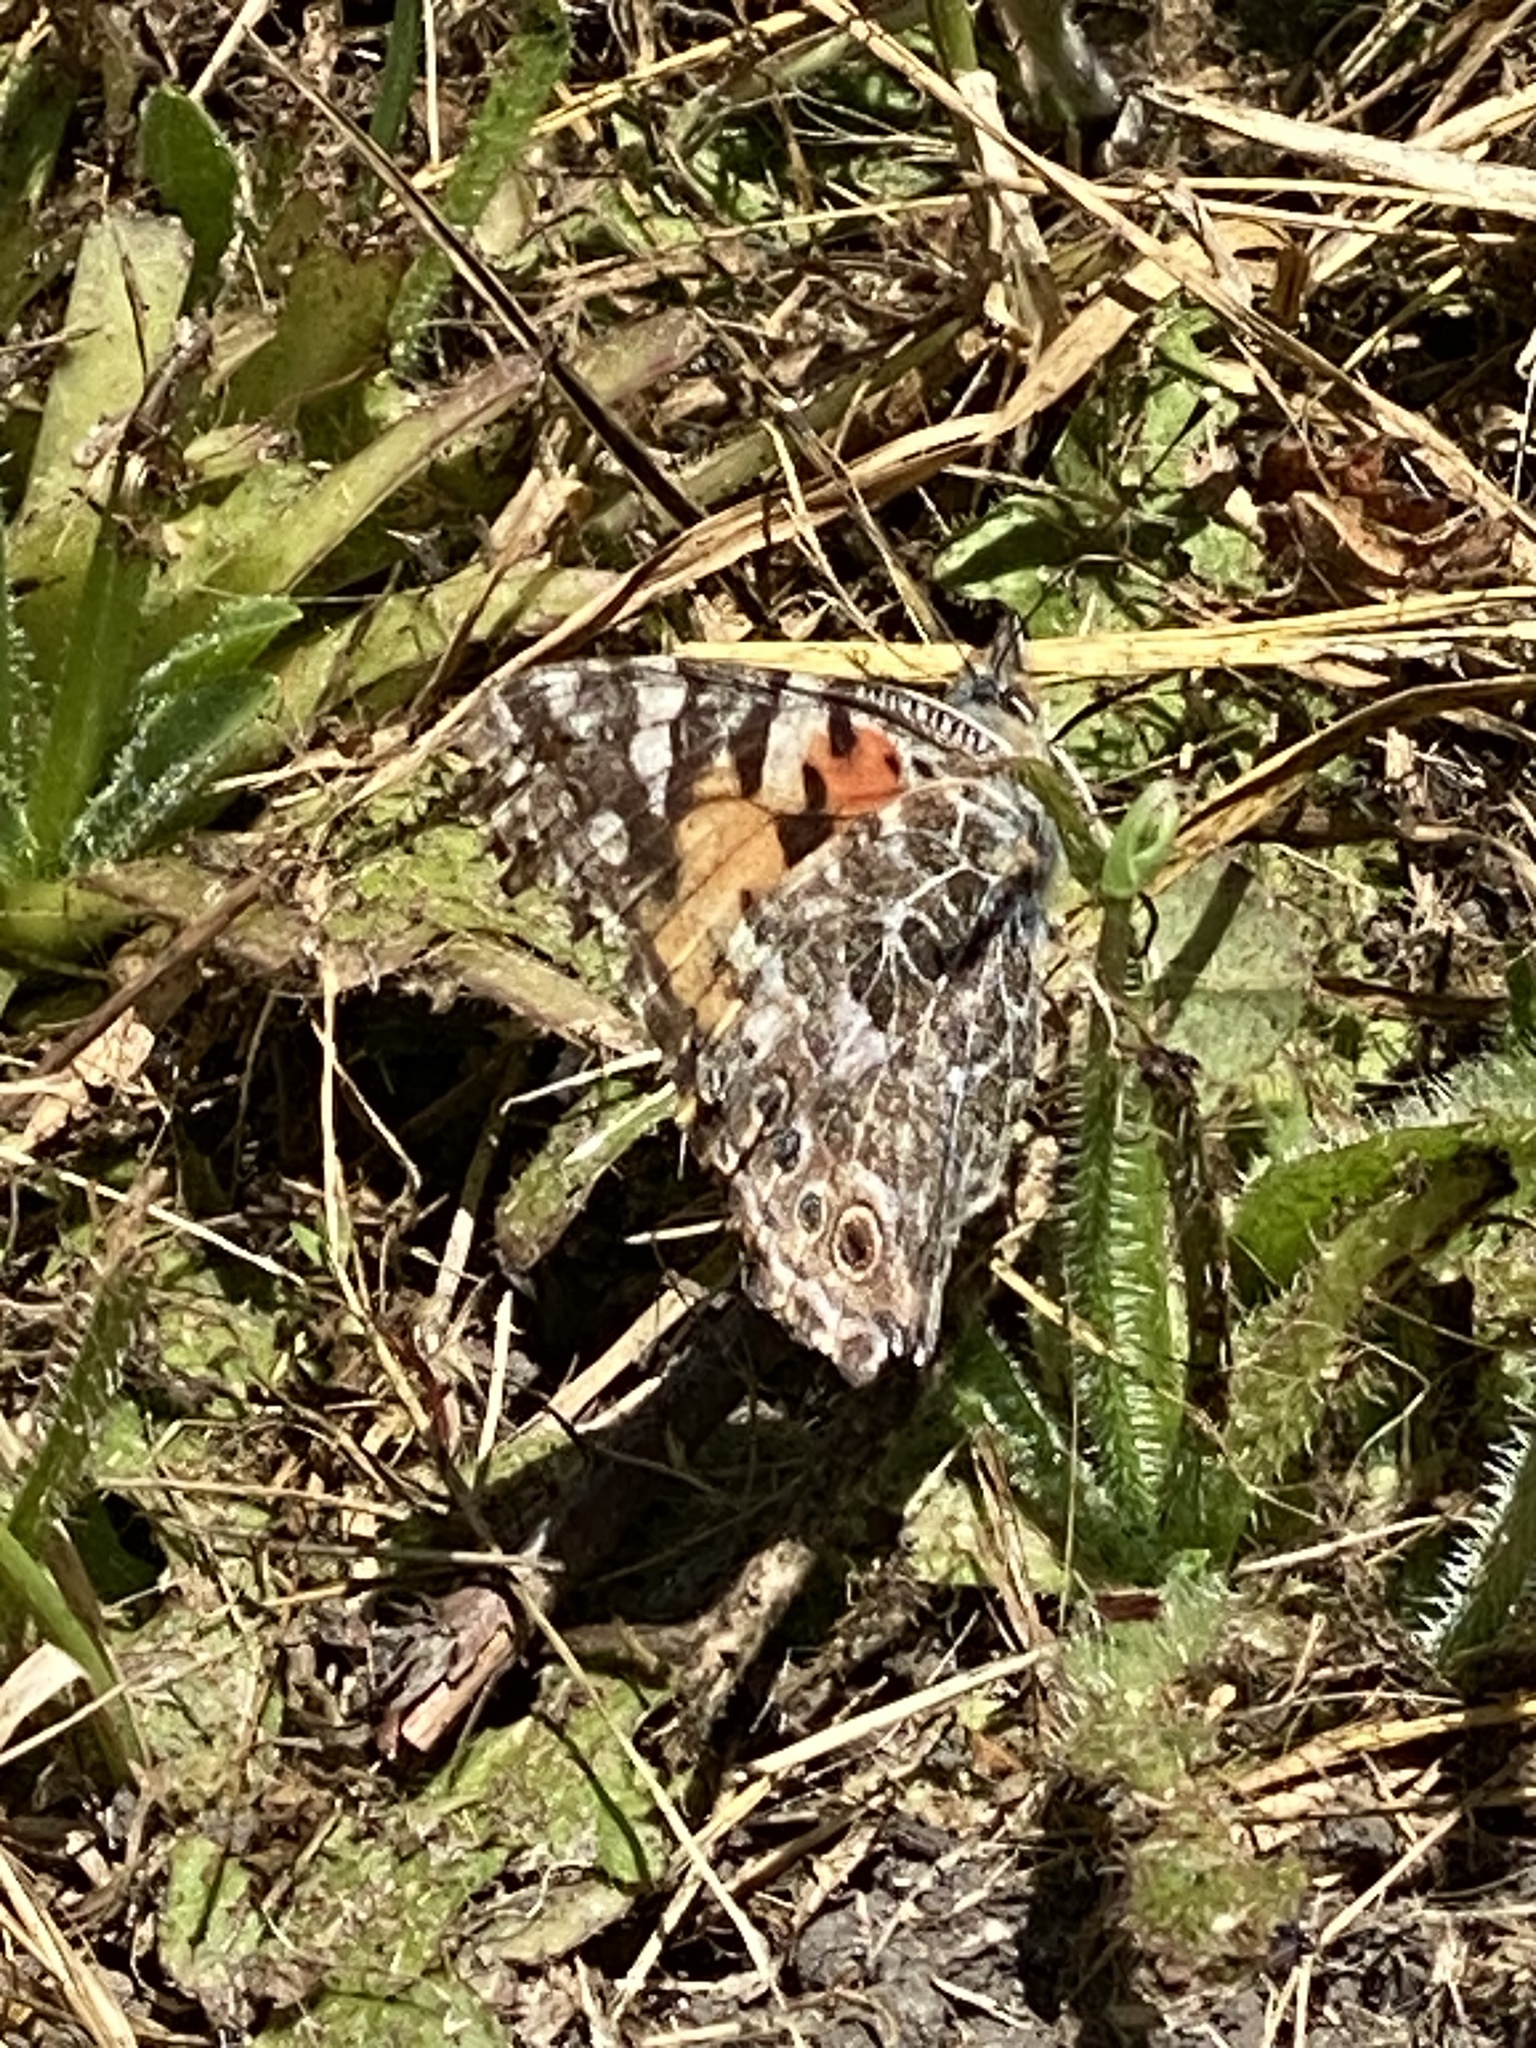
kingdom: Animalia
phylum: Arthropoda
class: Insecta
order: Lepidoptera
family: Nymphalidae
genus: Vanessa
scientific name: Vanessa cardui
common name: Painted lady
